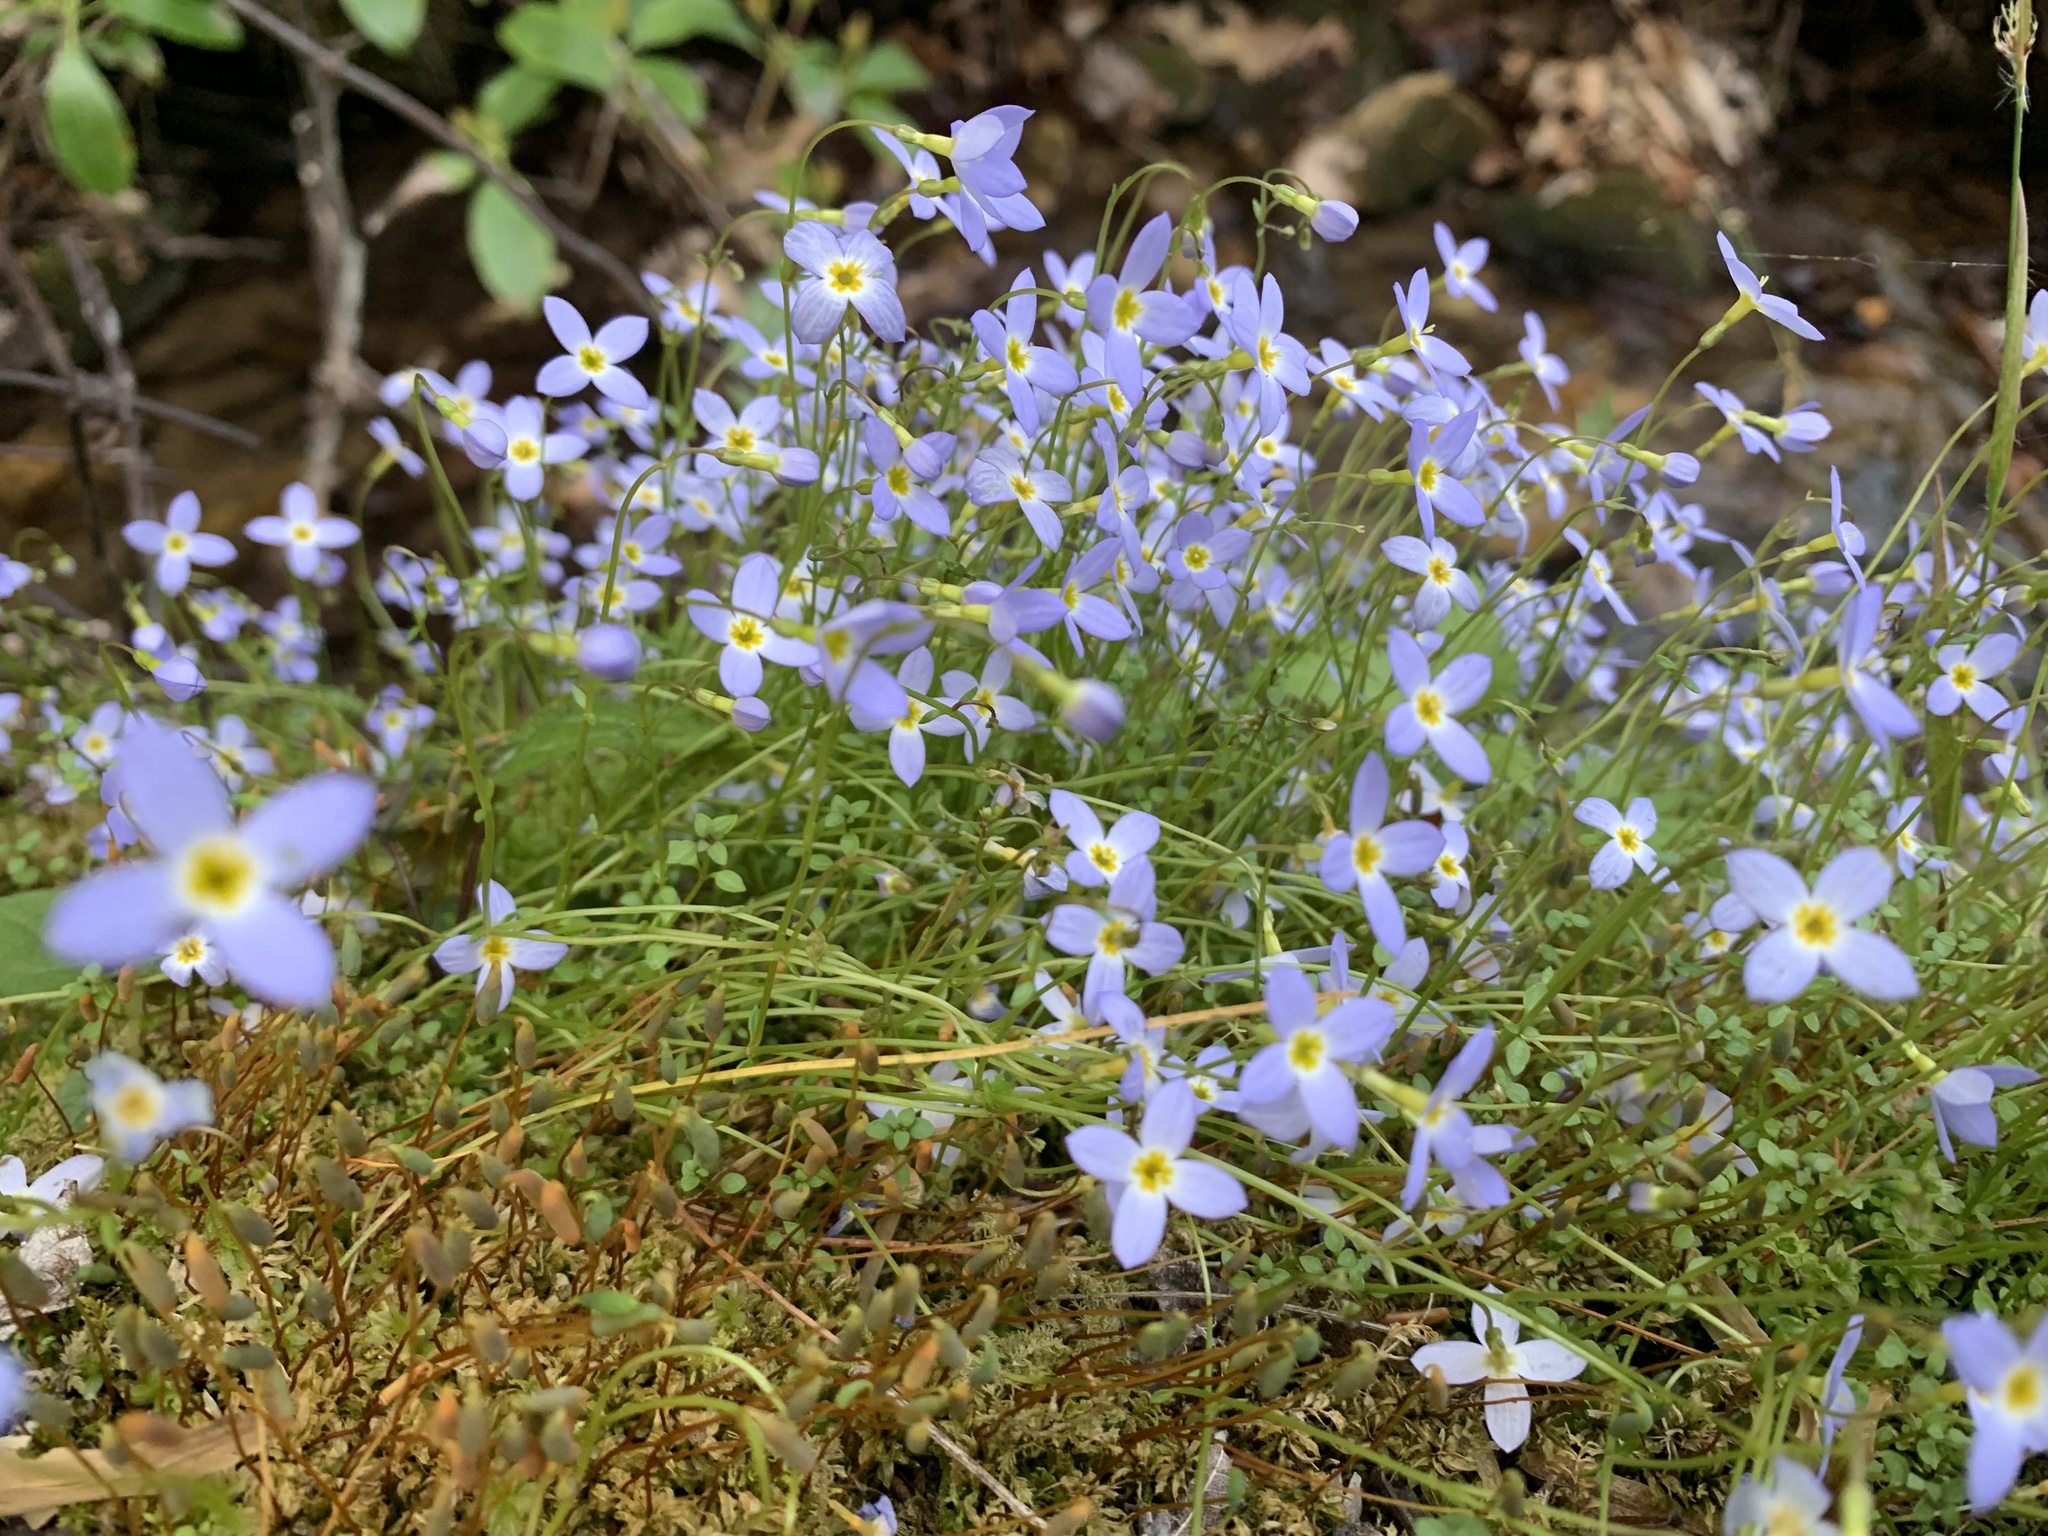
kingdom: Plantae
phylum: Tracheophyta
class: Magnoliopsida
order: Gentianales
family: Rubiaceae
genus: Houstonia
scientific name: Houstonia serpyllifolia
